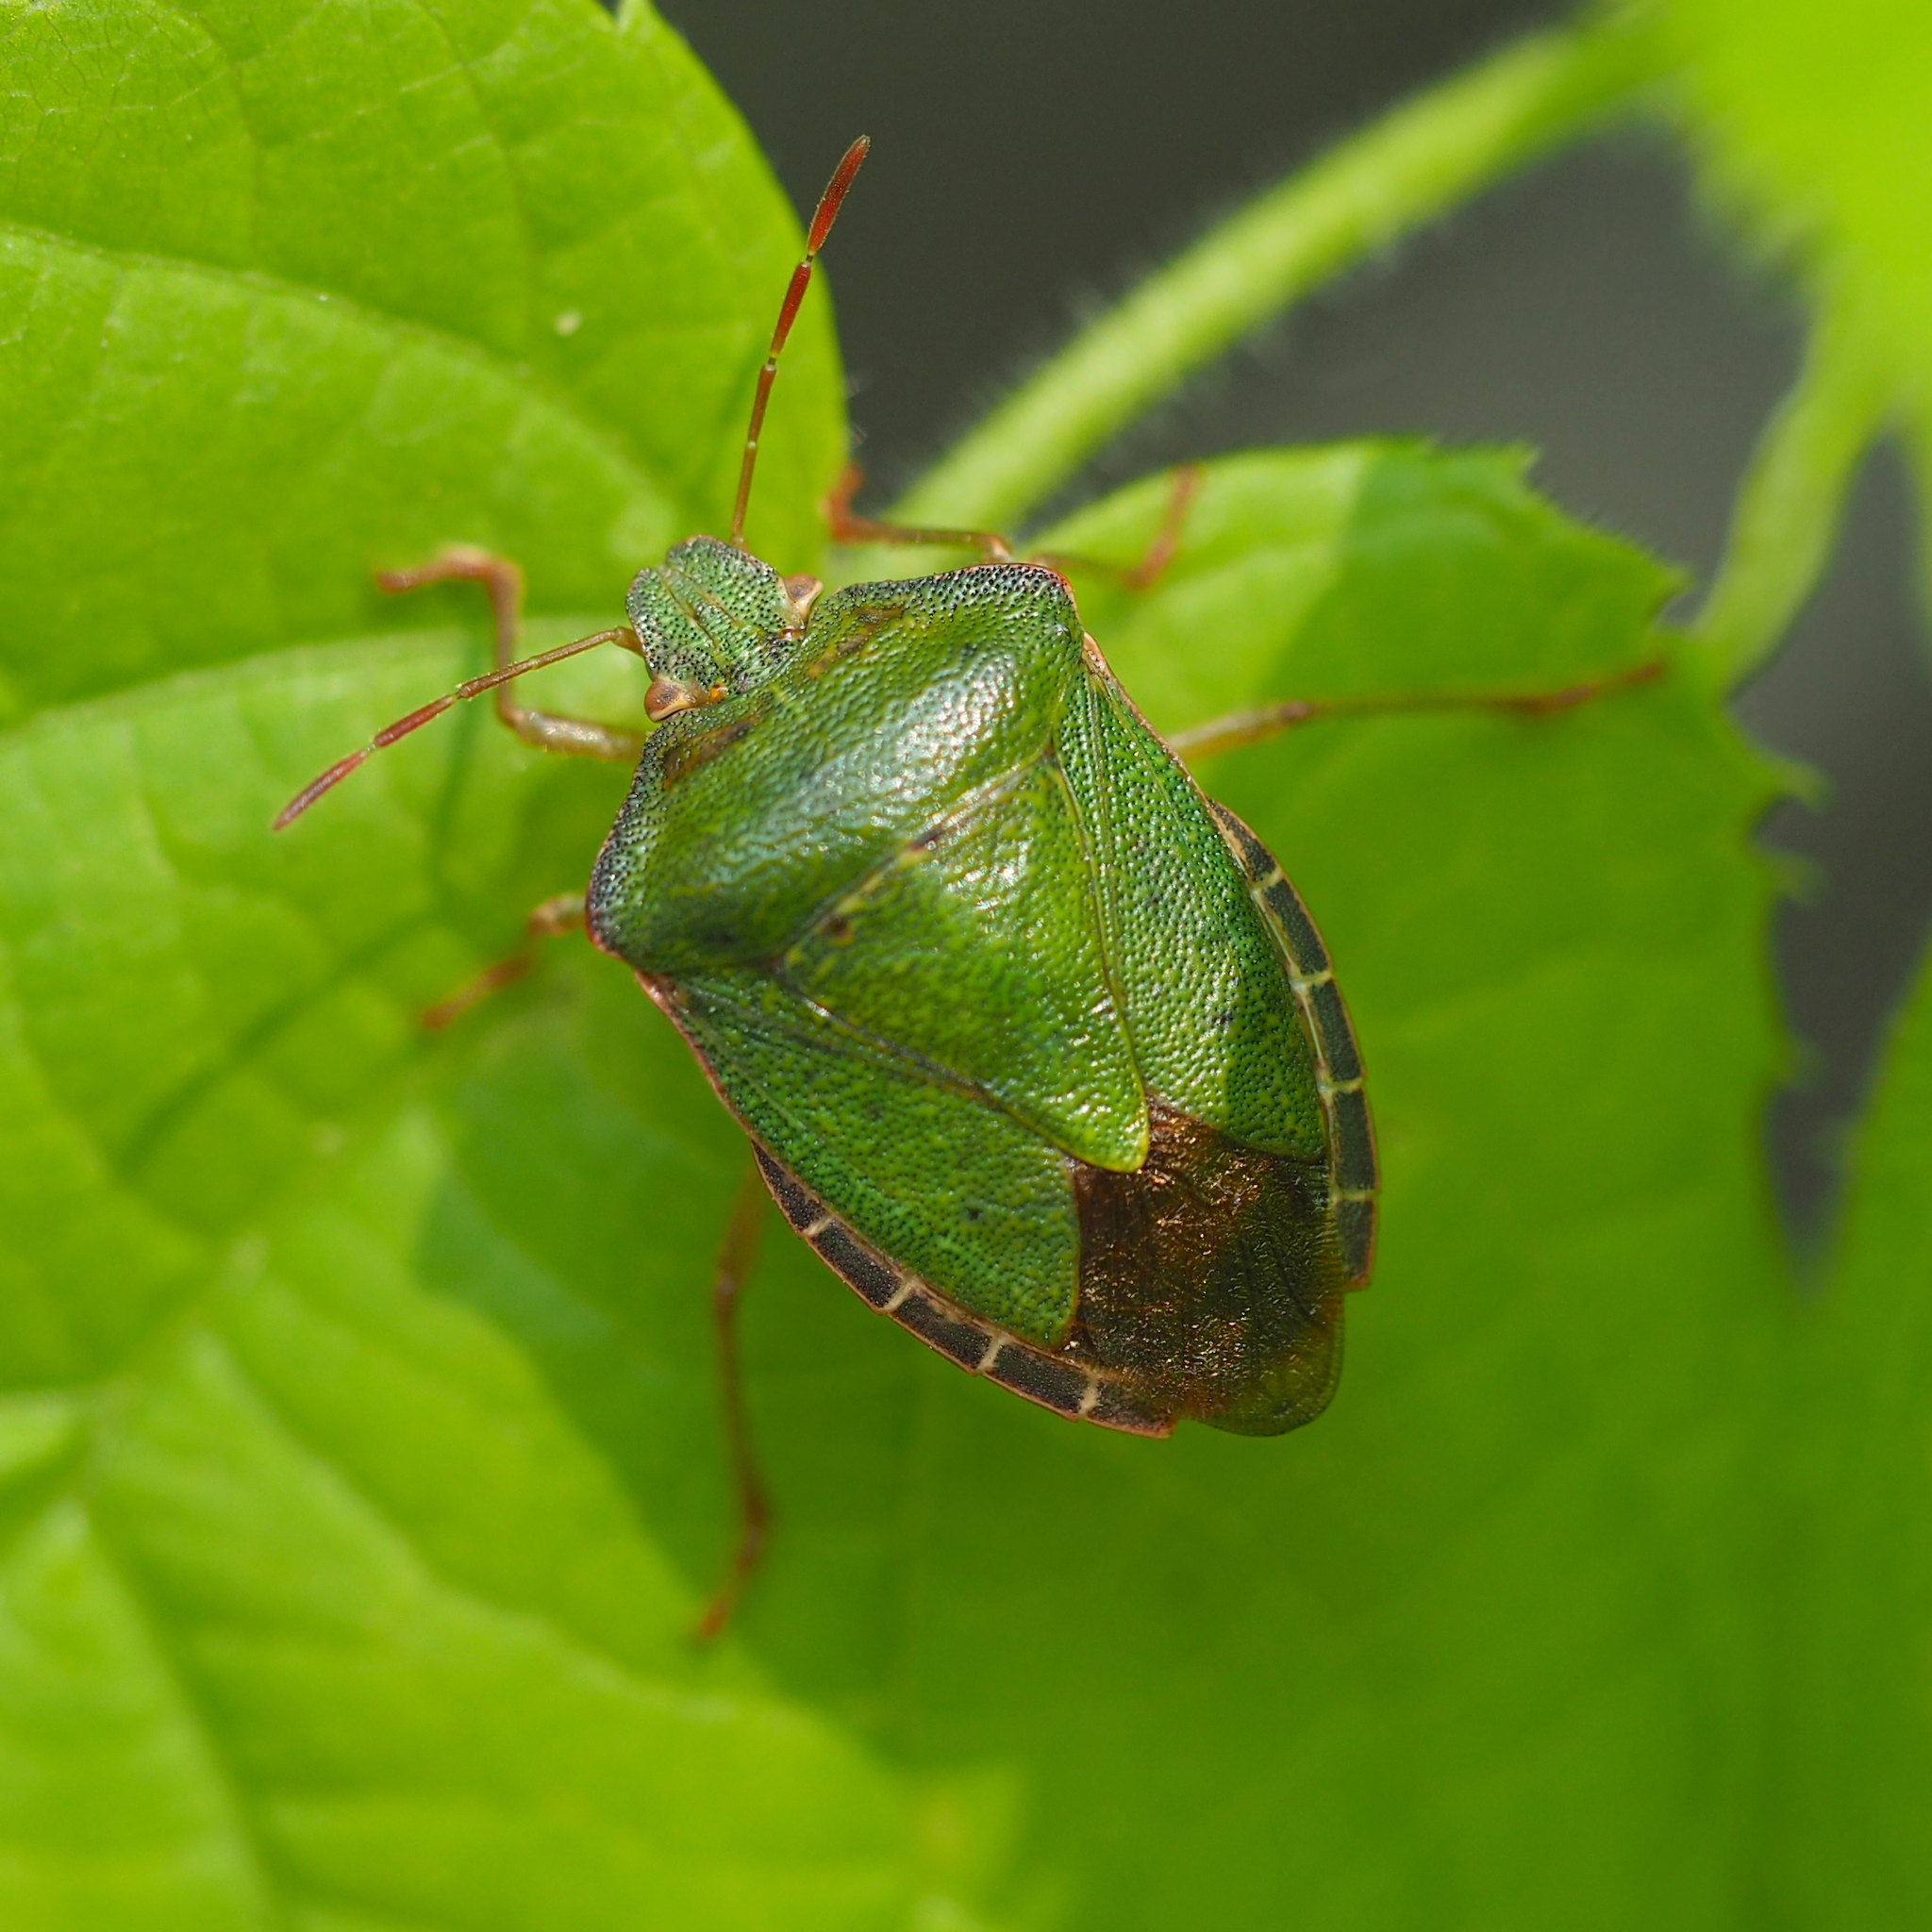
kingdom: Animalia
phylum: Arthropoda
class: Insecta
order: Hemiptera
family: Pentatomidae
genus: Palomena
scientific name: Palomena prasina
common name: Green shieldbug
